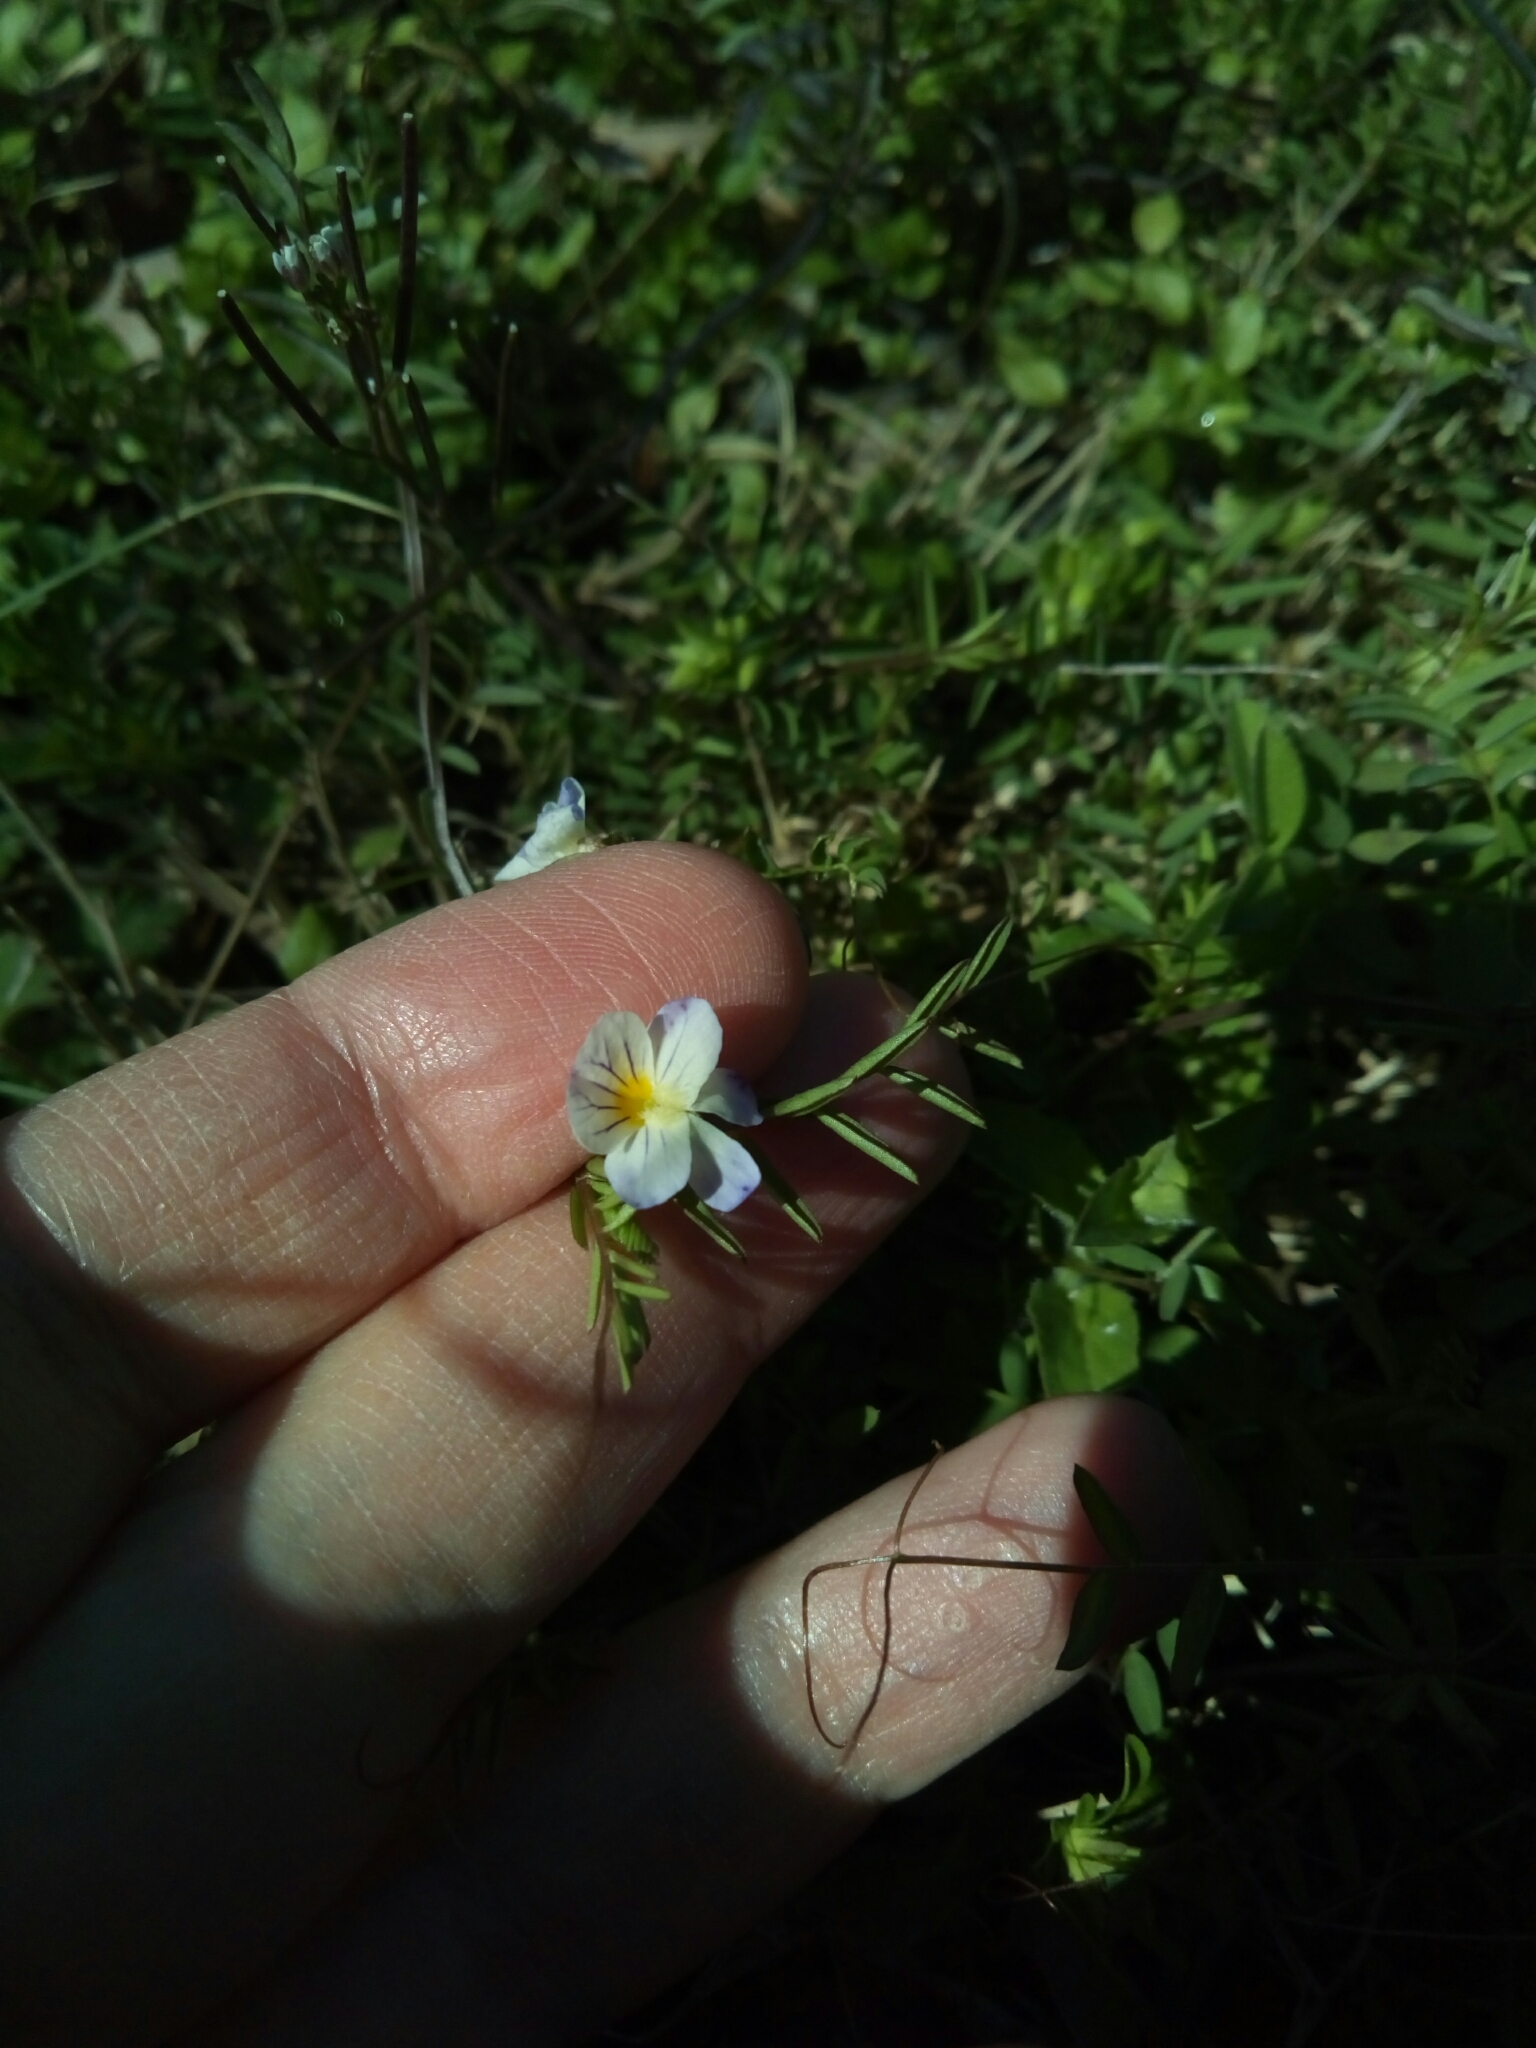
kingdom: Plantae
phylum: Tracheophyta
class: Magnoliopsida
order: Malpighiales
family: Violaceae
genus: Viola
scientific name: Viola rafinesquei
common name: American field pansy
